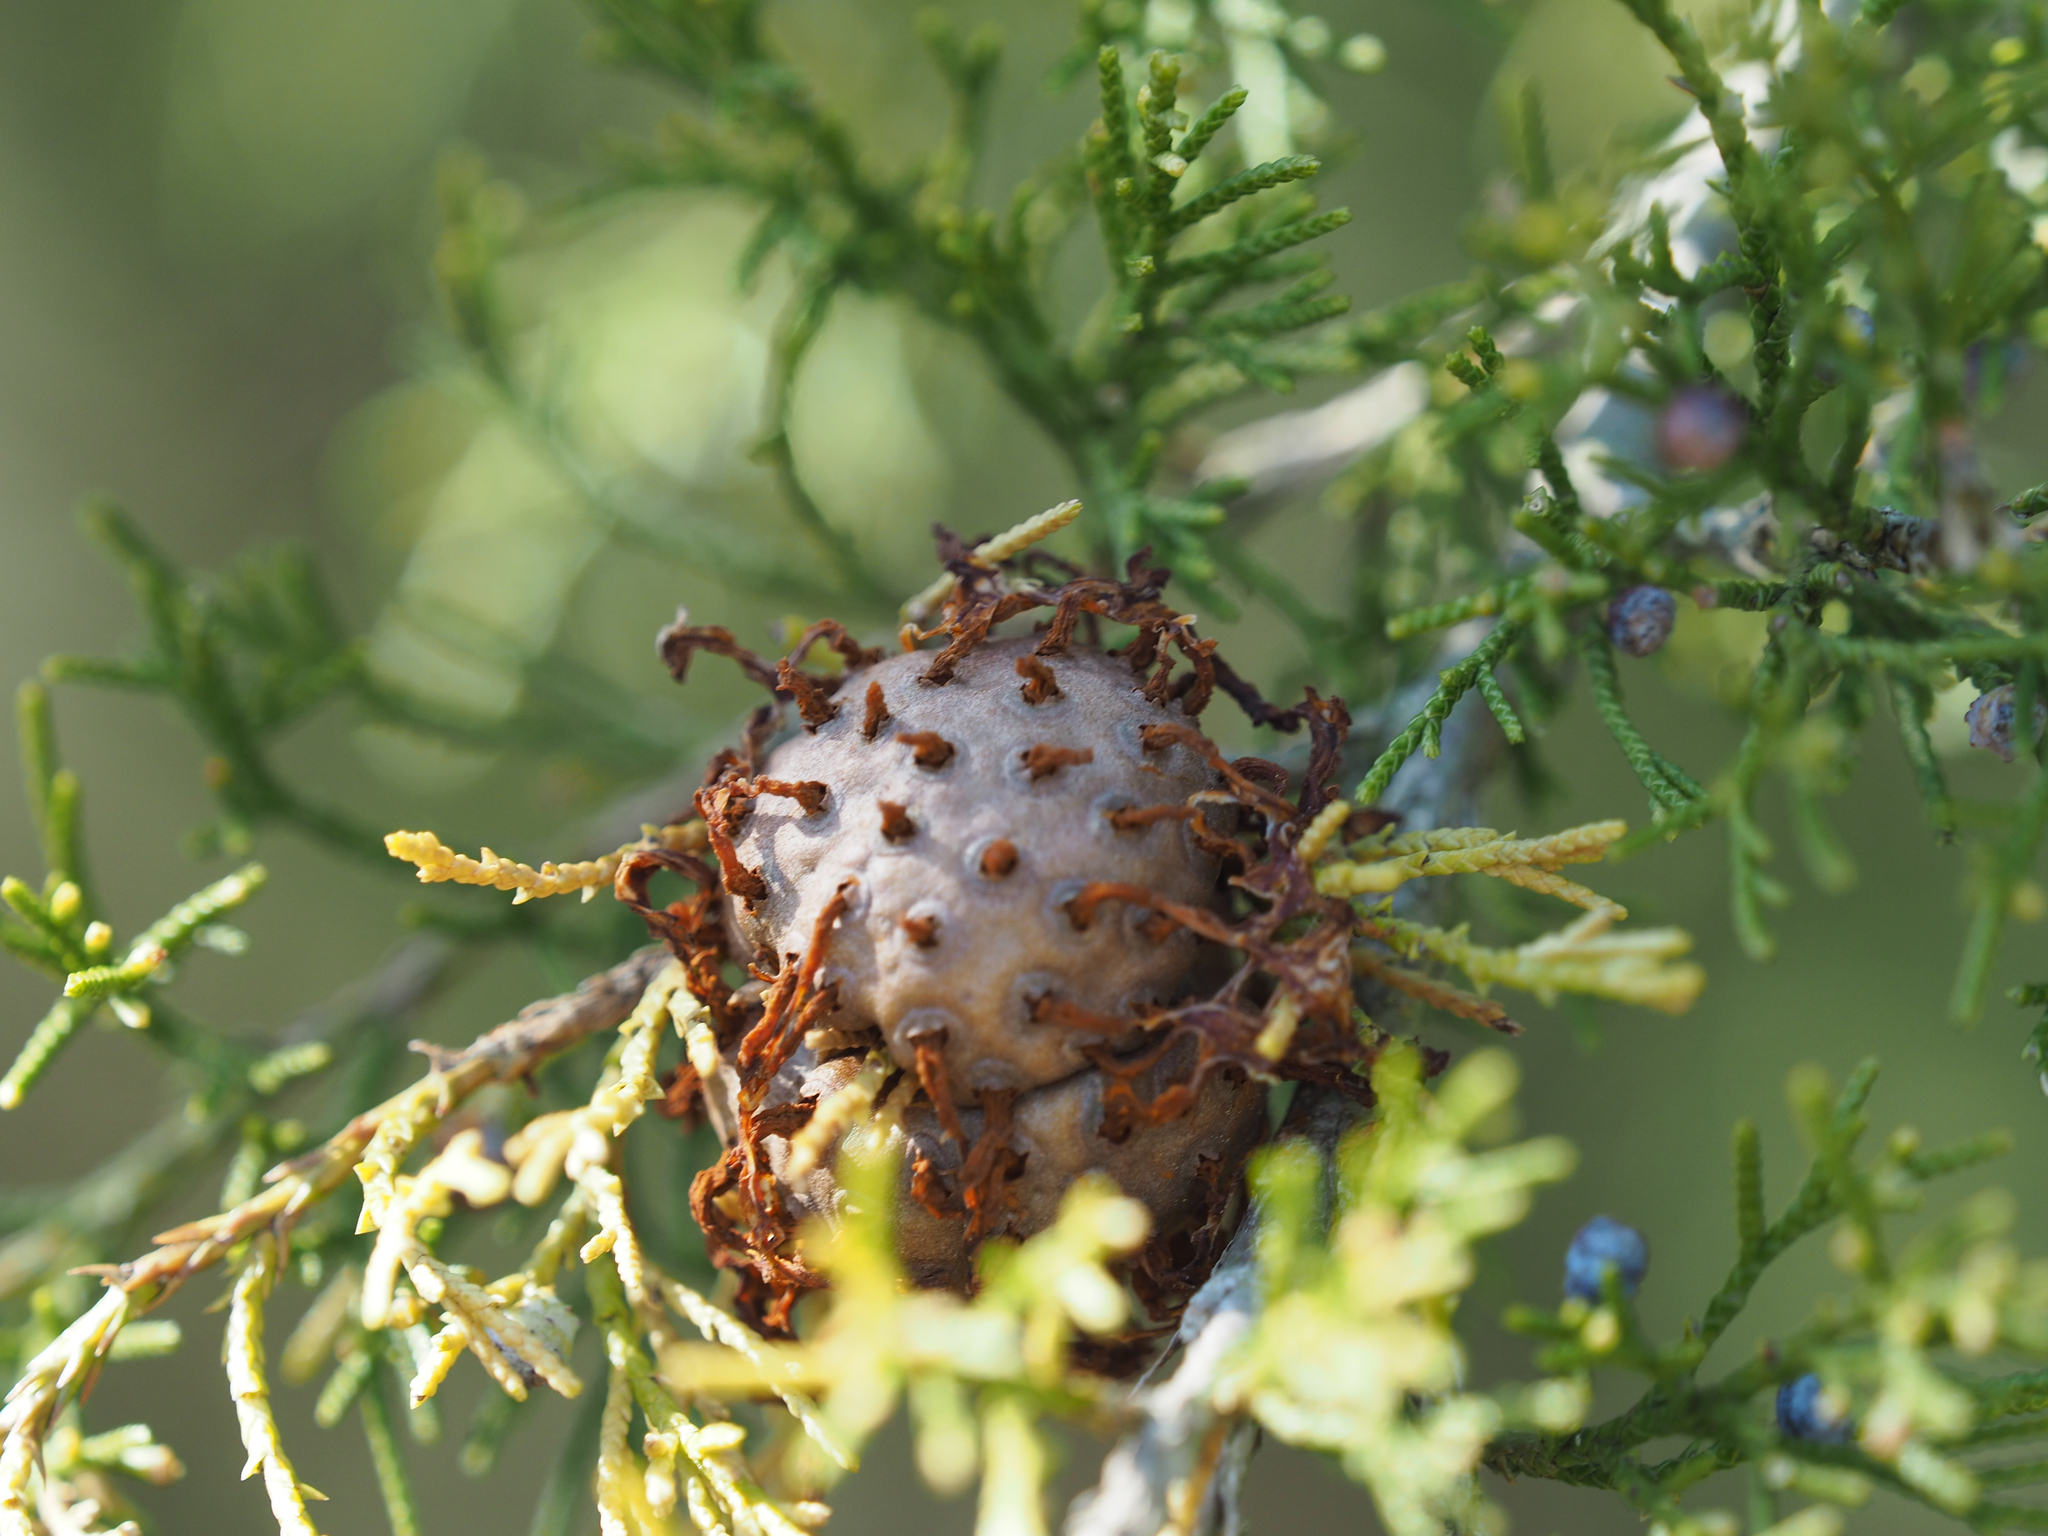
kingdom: Fungi
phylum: Basidiomycota
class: Pucciniomycetes
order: Pucciniales
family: Gymnosporangiaceae
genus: Gymnosporangium
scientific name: Gymnosporangium juniperi-virginianae
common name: Juniper-apple rust
